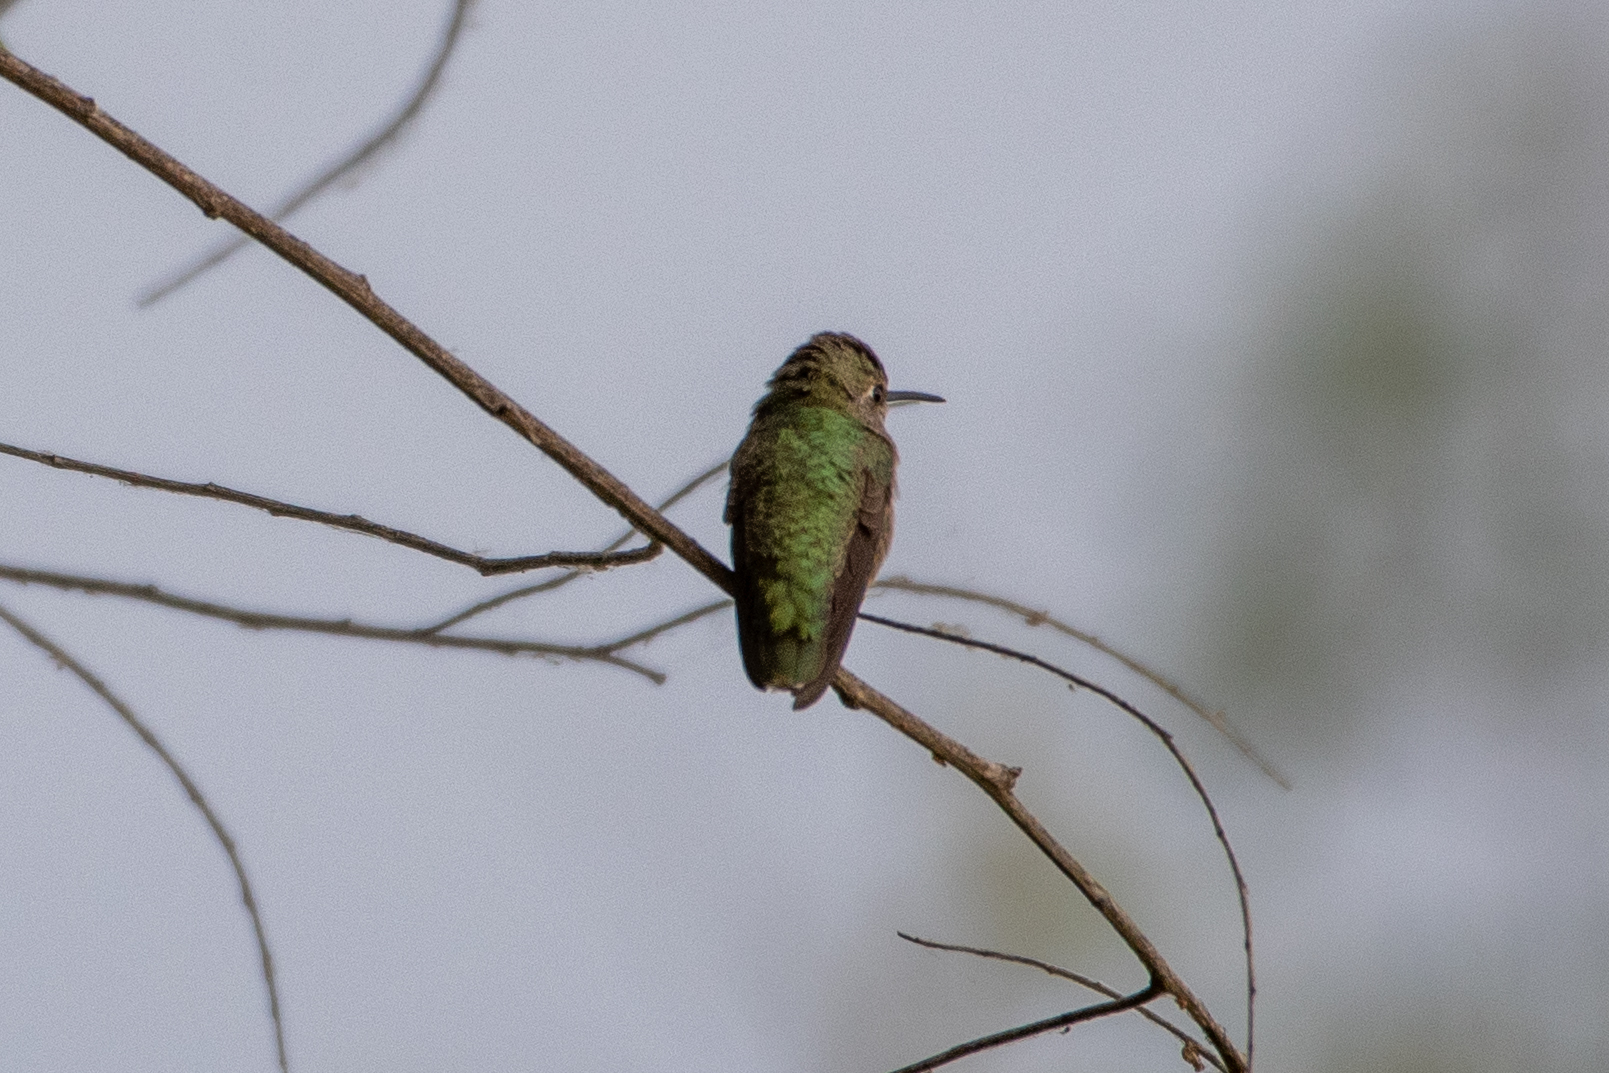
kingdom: Animalia
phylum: Chordata
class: Aves
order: Apodiformes
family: Trochilidae
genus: Calypte
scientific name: Calypte anna
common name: Anna's hummingbird
